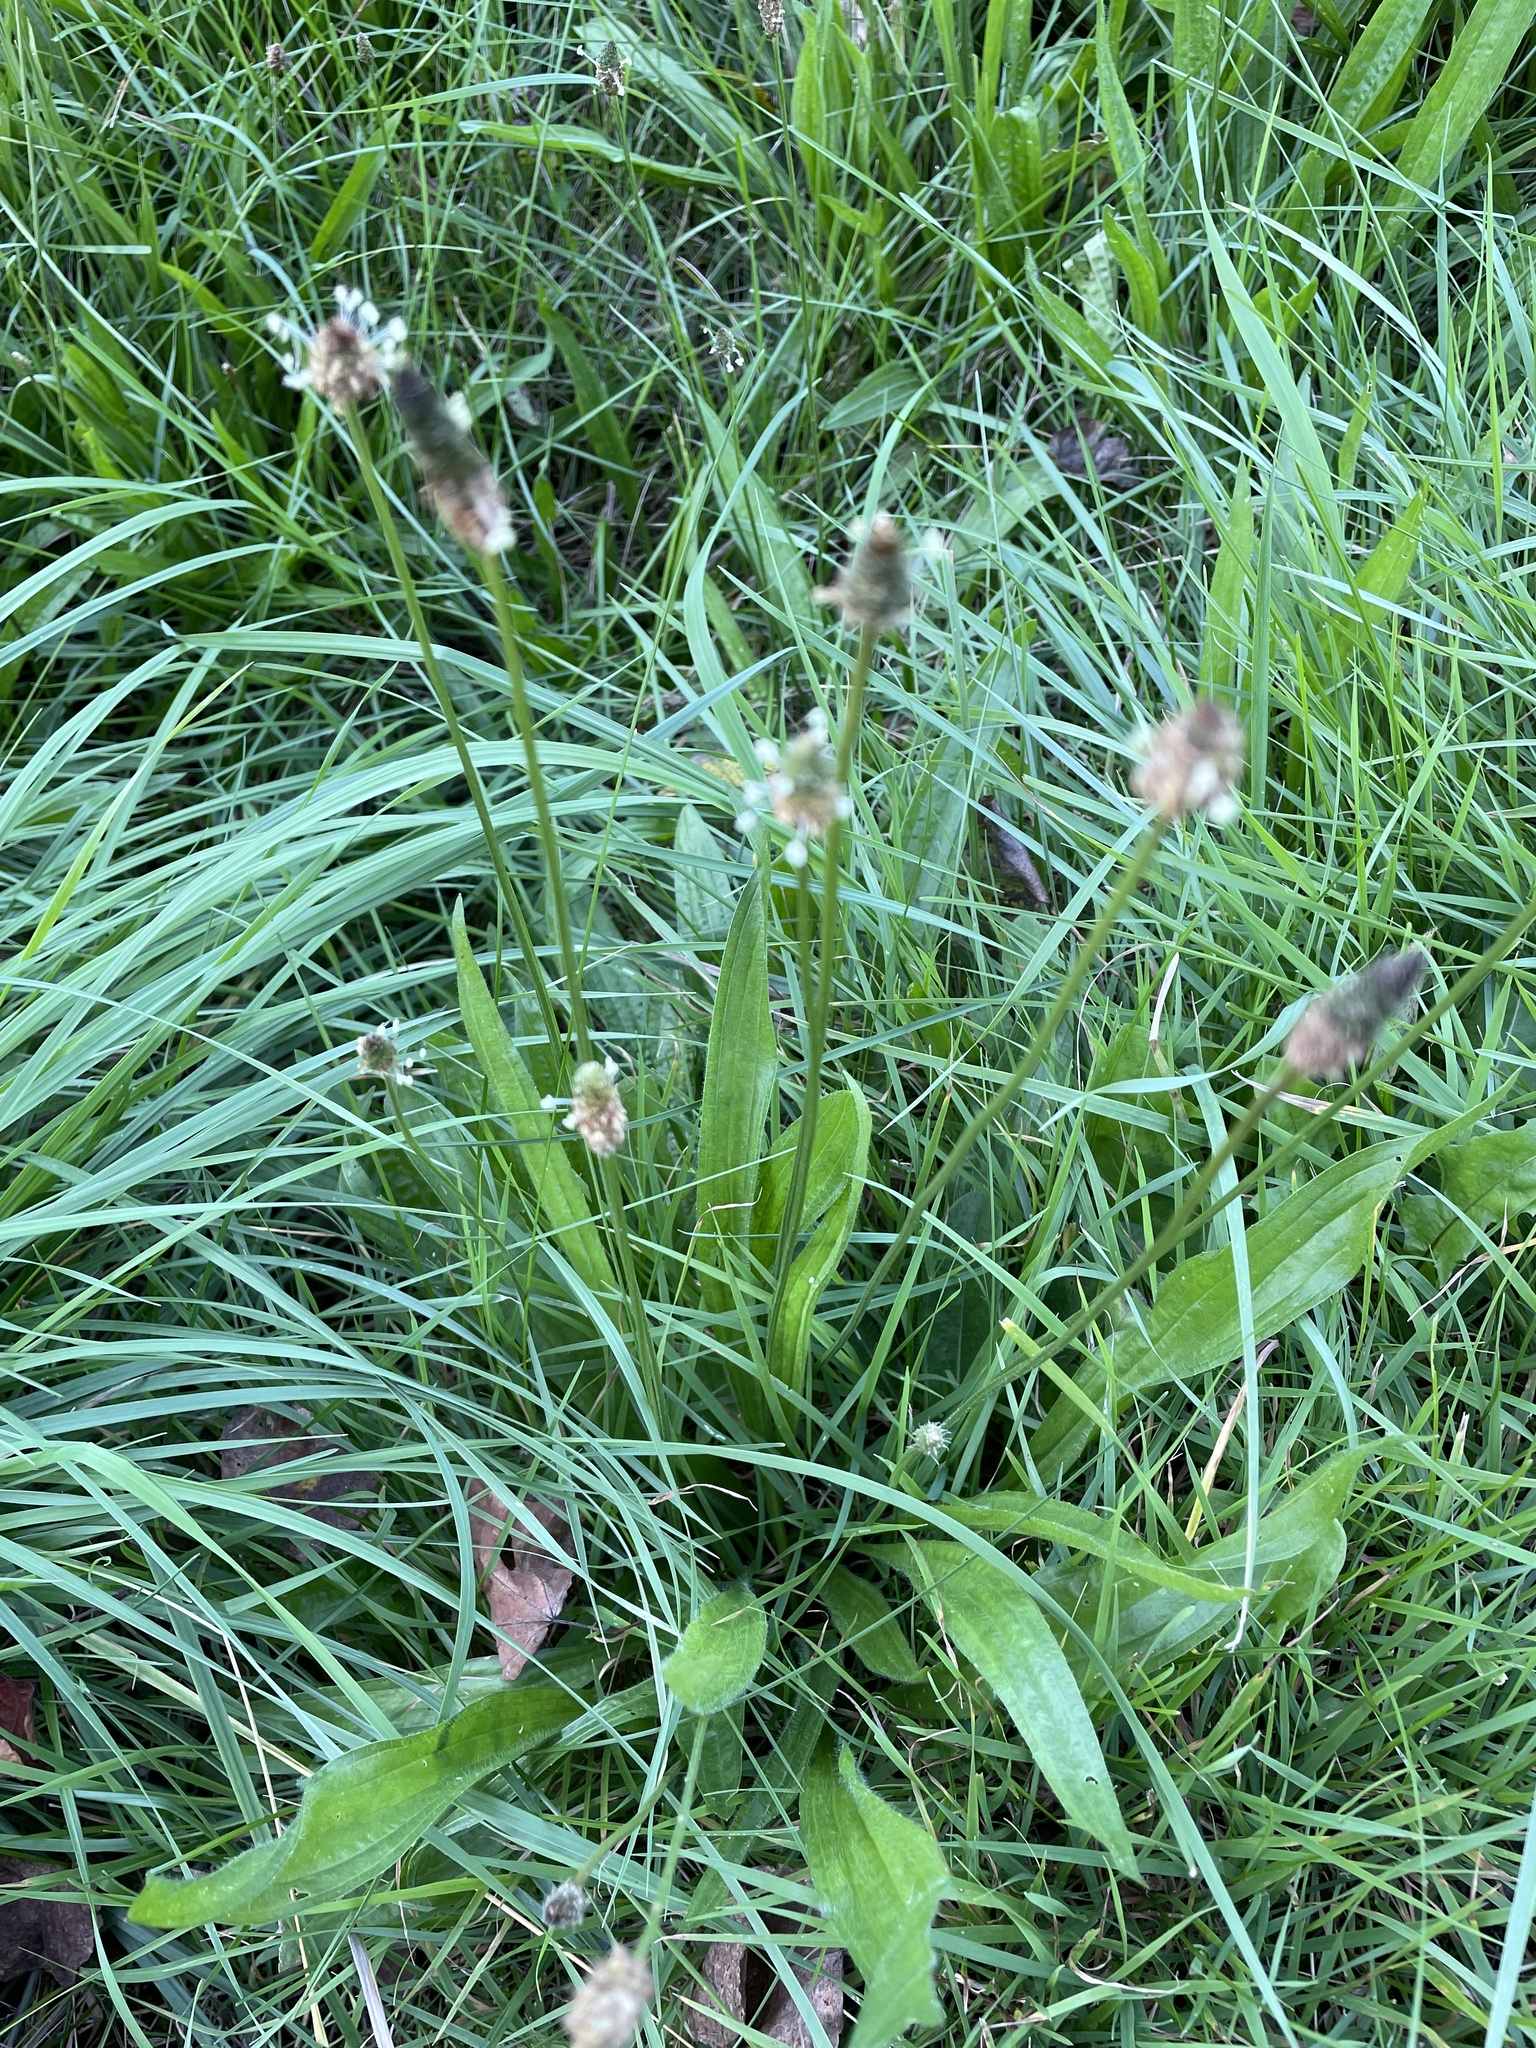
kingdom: Plantae
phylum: Tracheophyta
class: Magnoliopsida
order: Lamiales
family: Plantaginaceae
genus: Plantago
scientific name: Plantago lanceolata
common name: Ribwort plantain
